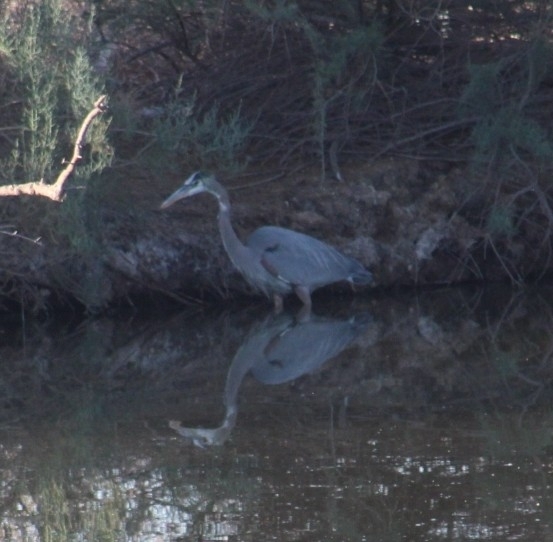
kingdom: Animalia
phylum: Chordata
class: Aves
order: Pelecaniformes
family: Ardeidae
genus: Ardea
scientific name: Ardea herodias
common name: Great blue heron
